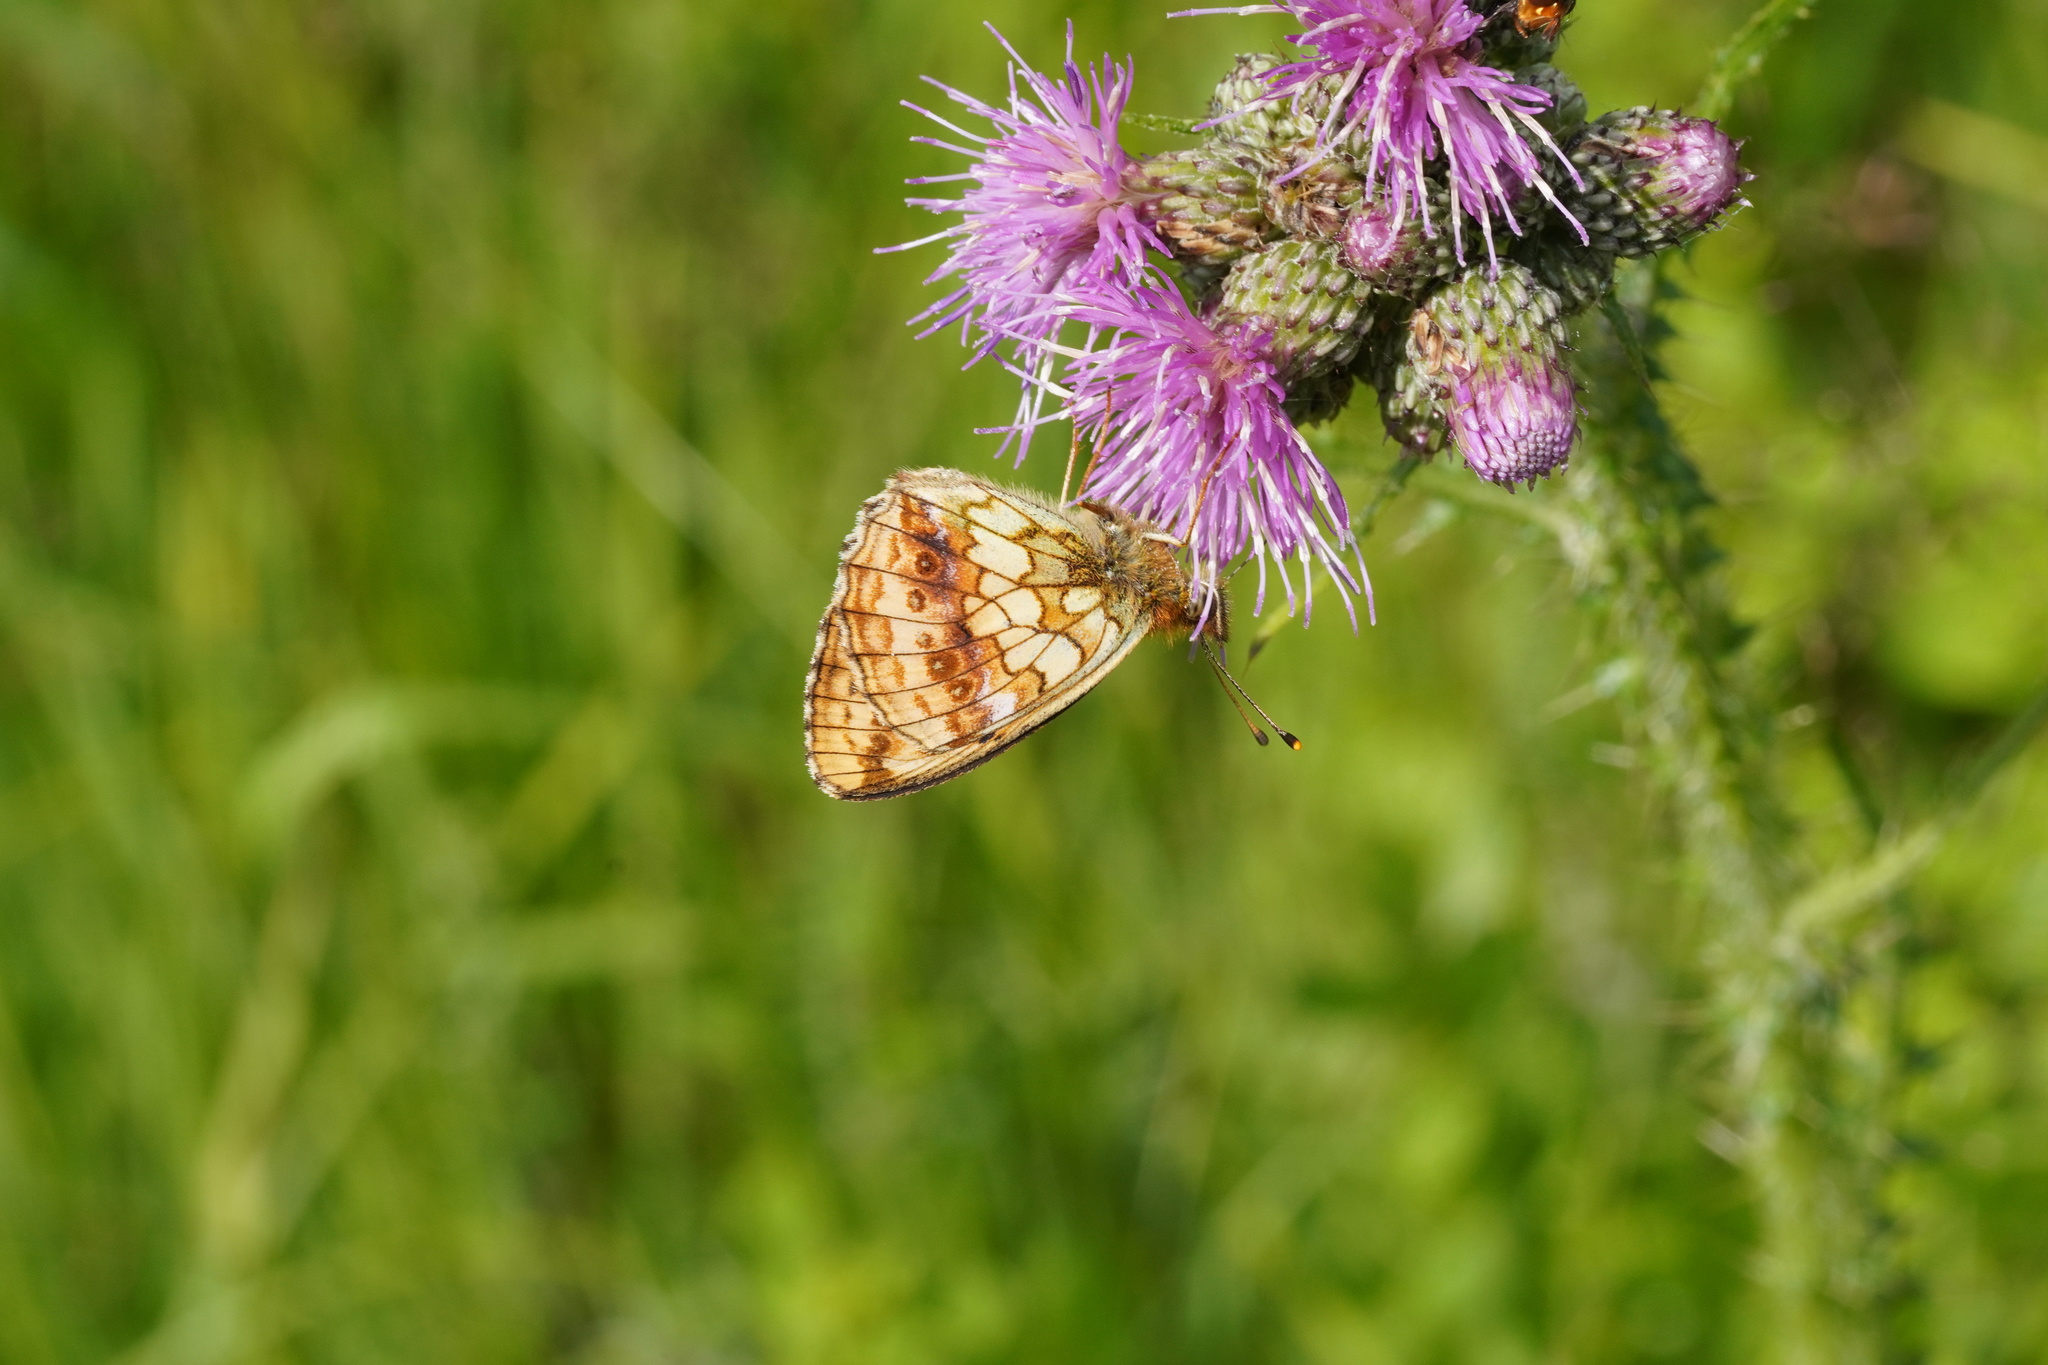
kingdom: Animalia
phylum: Arthropoda
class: Insecta
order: Lepidoptera
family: Nymphalidae
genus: Brenthis
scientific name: Brenthis ino
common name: Lesser marbled fritillary
